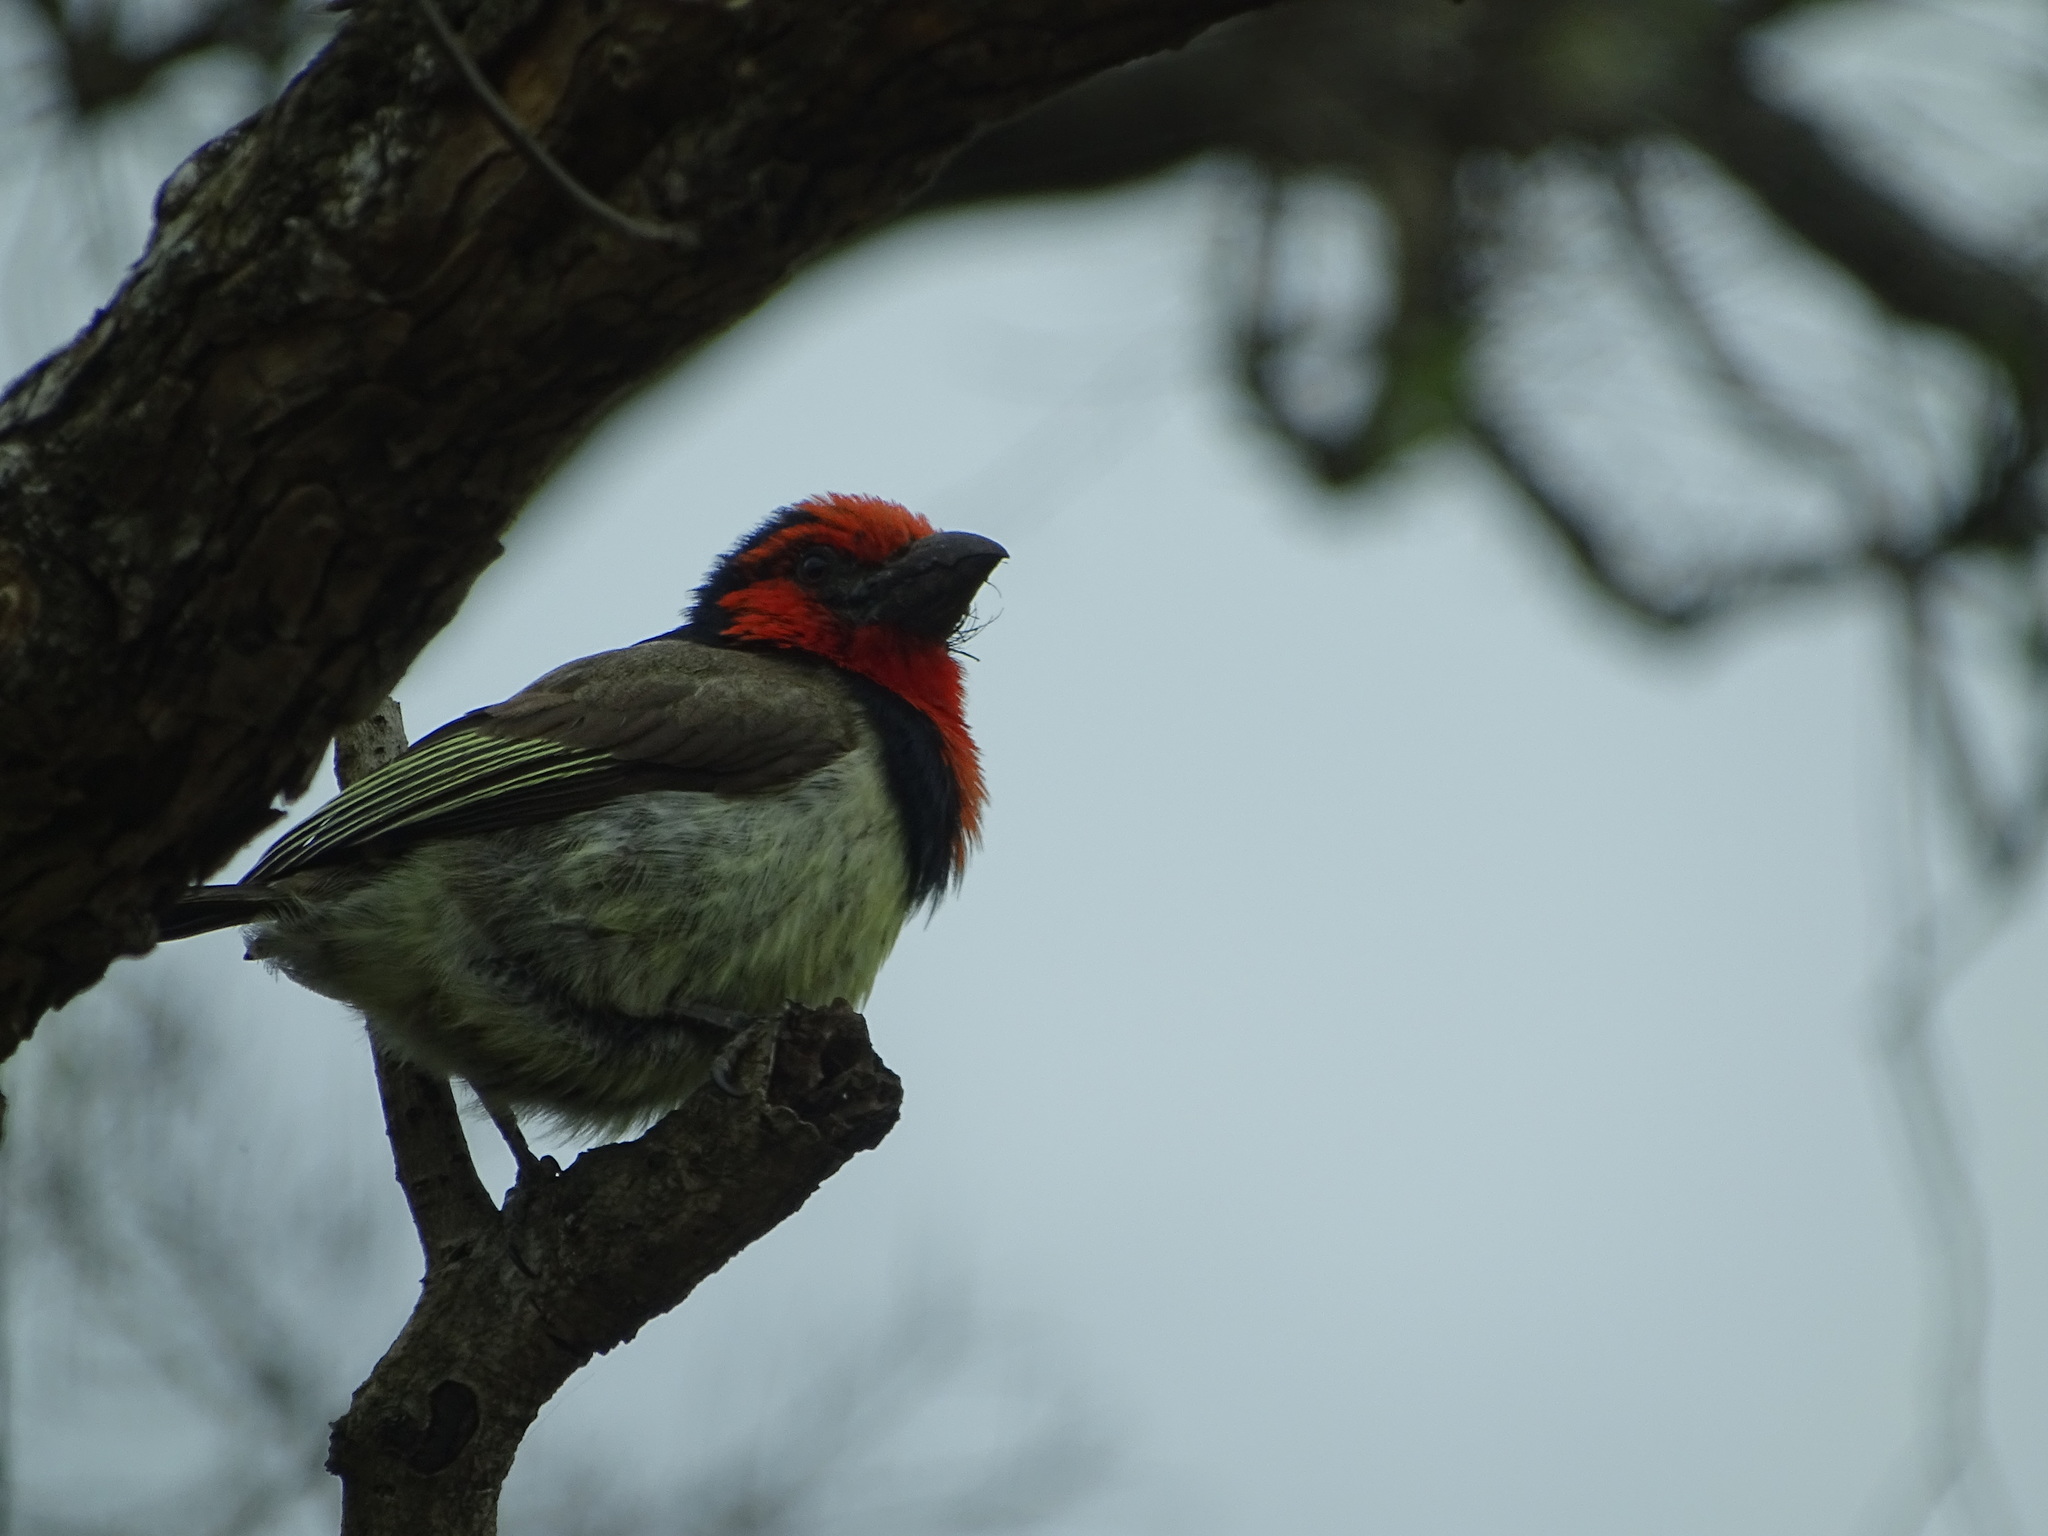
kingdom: Animalia
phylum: Chordata
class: Aves
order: Piciformes
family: Lybiidae
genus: Lybius
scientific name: Lybius torquatus
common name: Black-collared barbet
